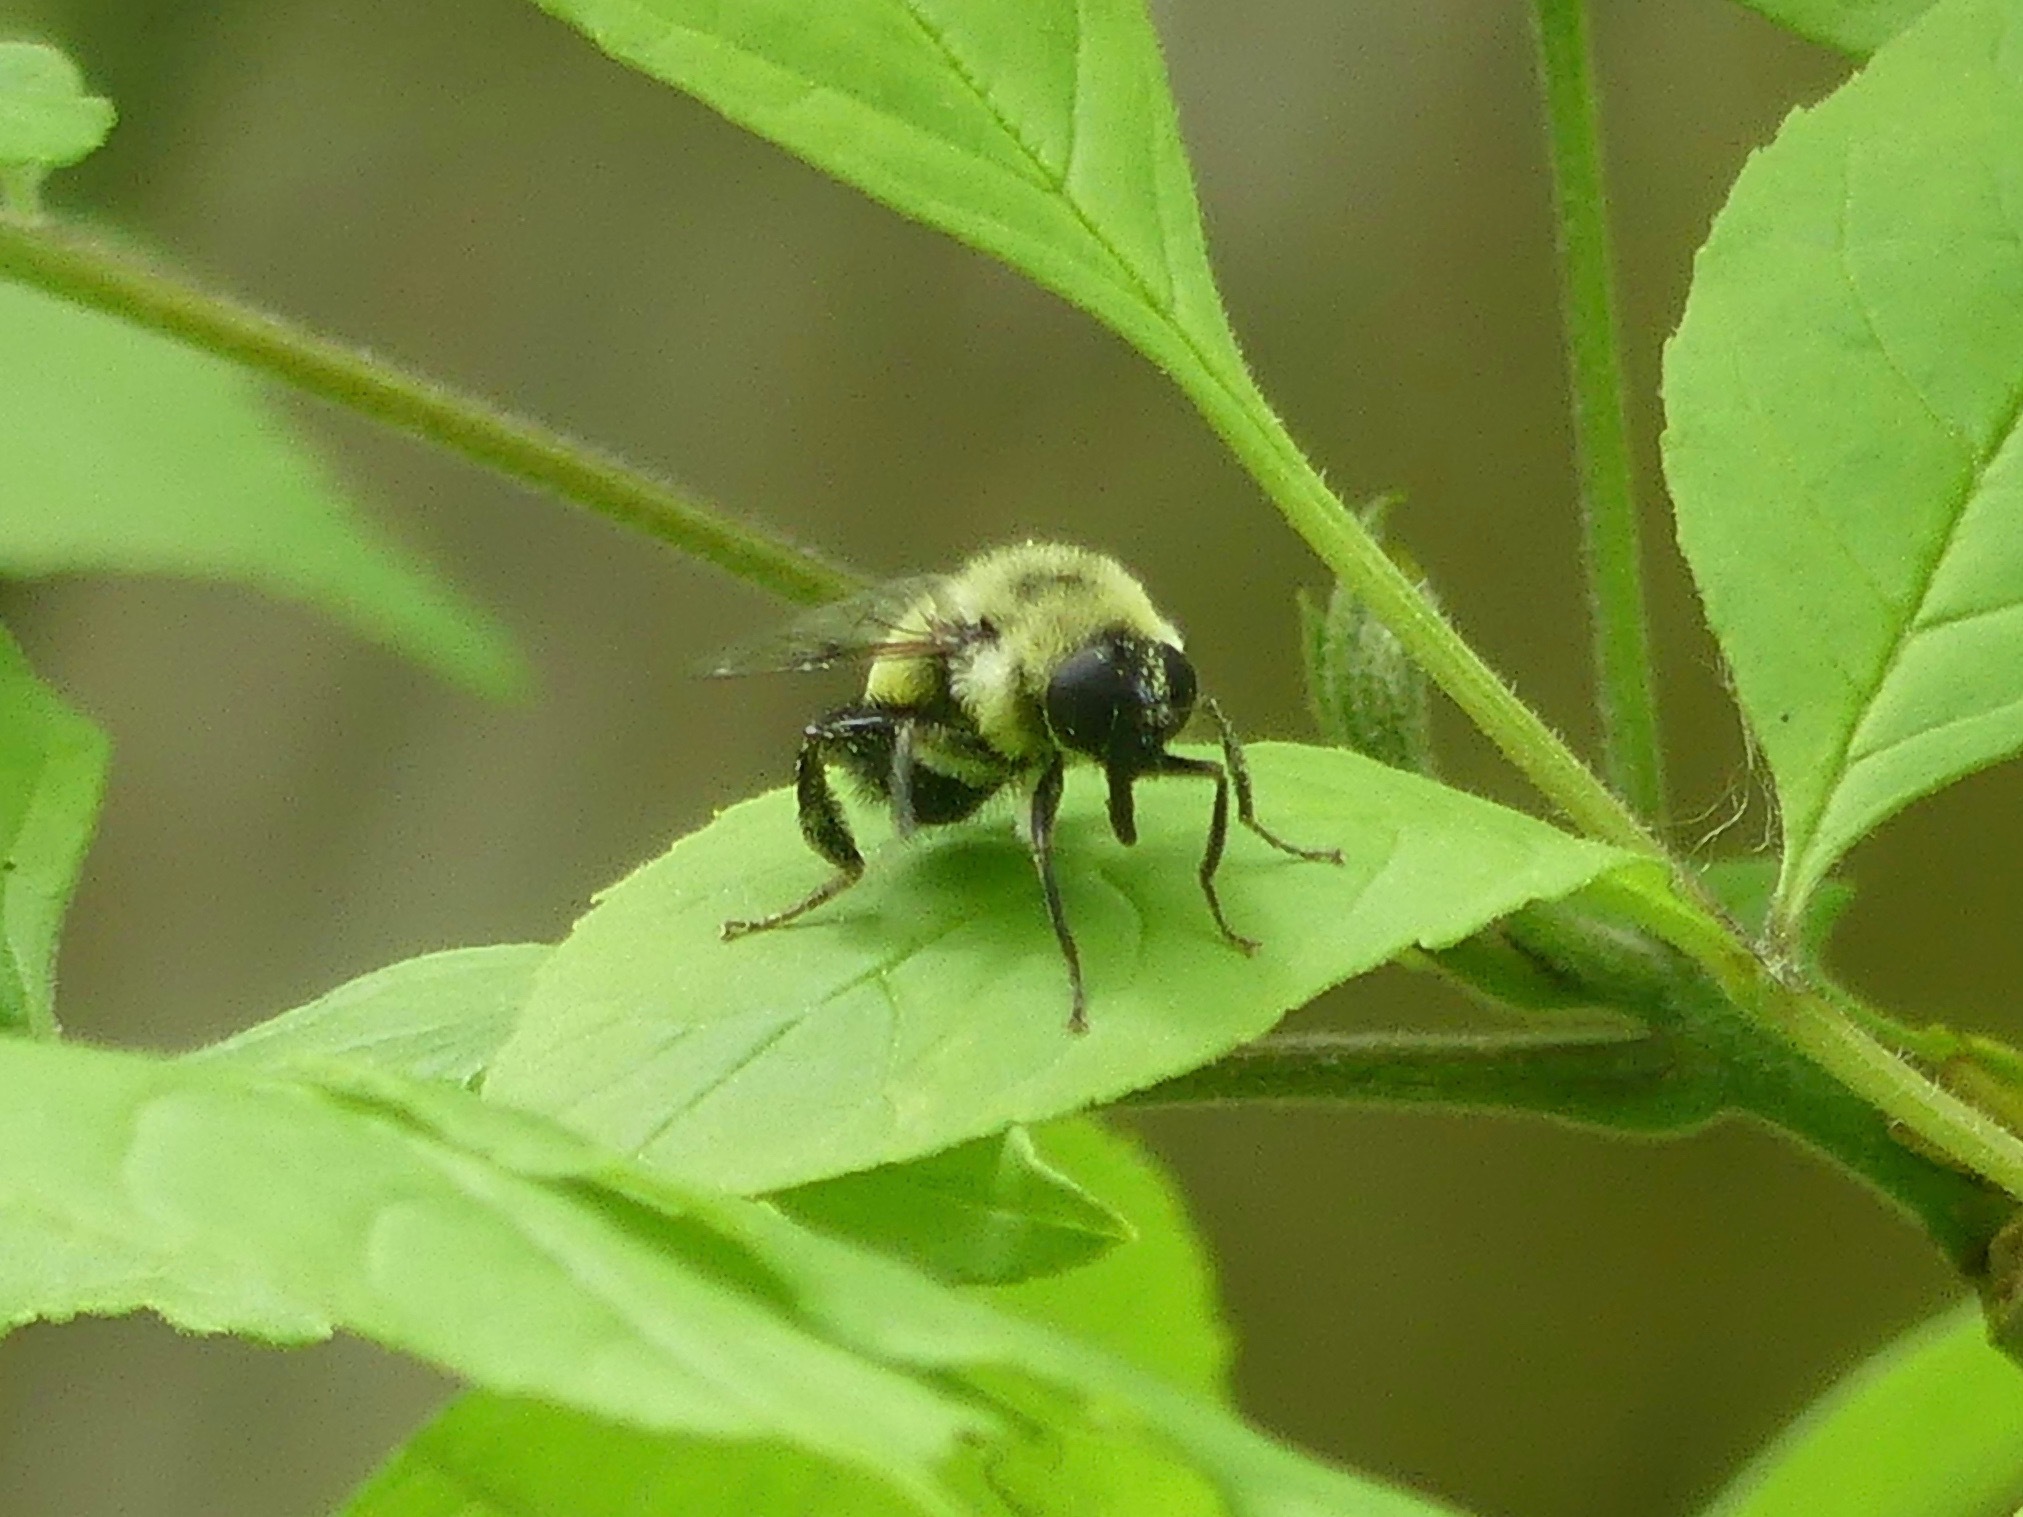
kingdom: Animalia
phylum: Arthropoda
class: Insecta
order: Diptera
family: Syrphidae
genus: Merodon
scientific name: Merodon equestris
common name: Greater bulb-fly
